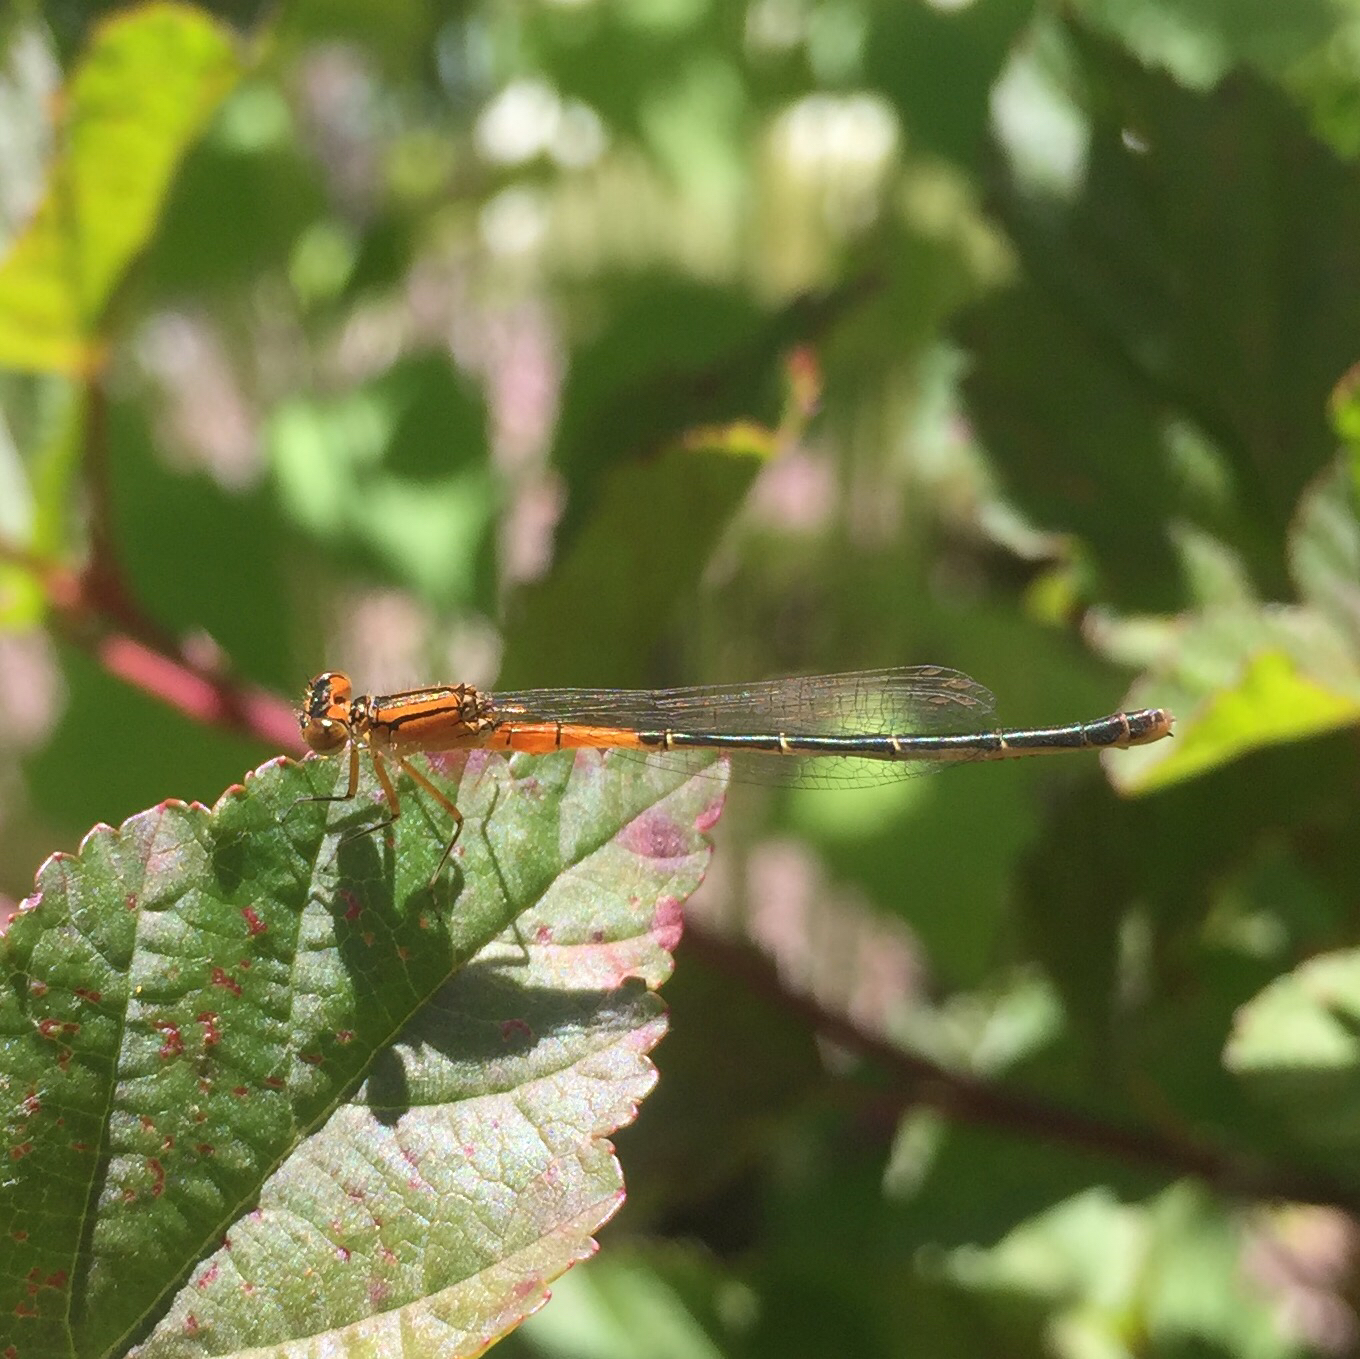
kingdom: Animalia
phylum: Arthropoda
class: Insecta
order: Odonata
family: Coenagrionidae
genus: Ischnura
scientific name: Ischnura verticalis
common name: Eastern forktail
